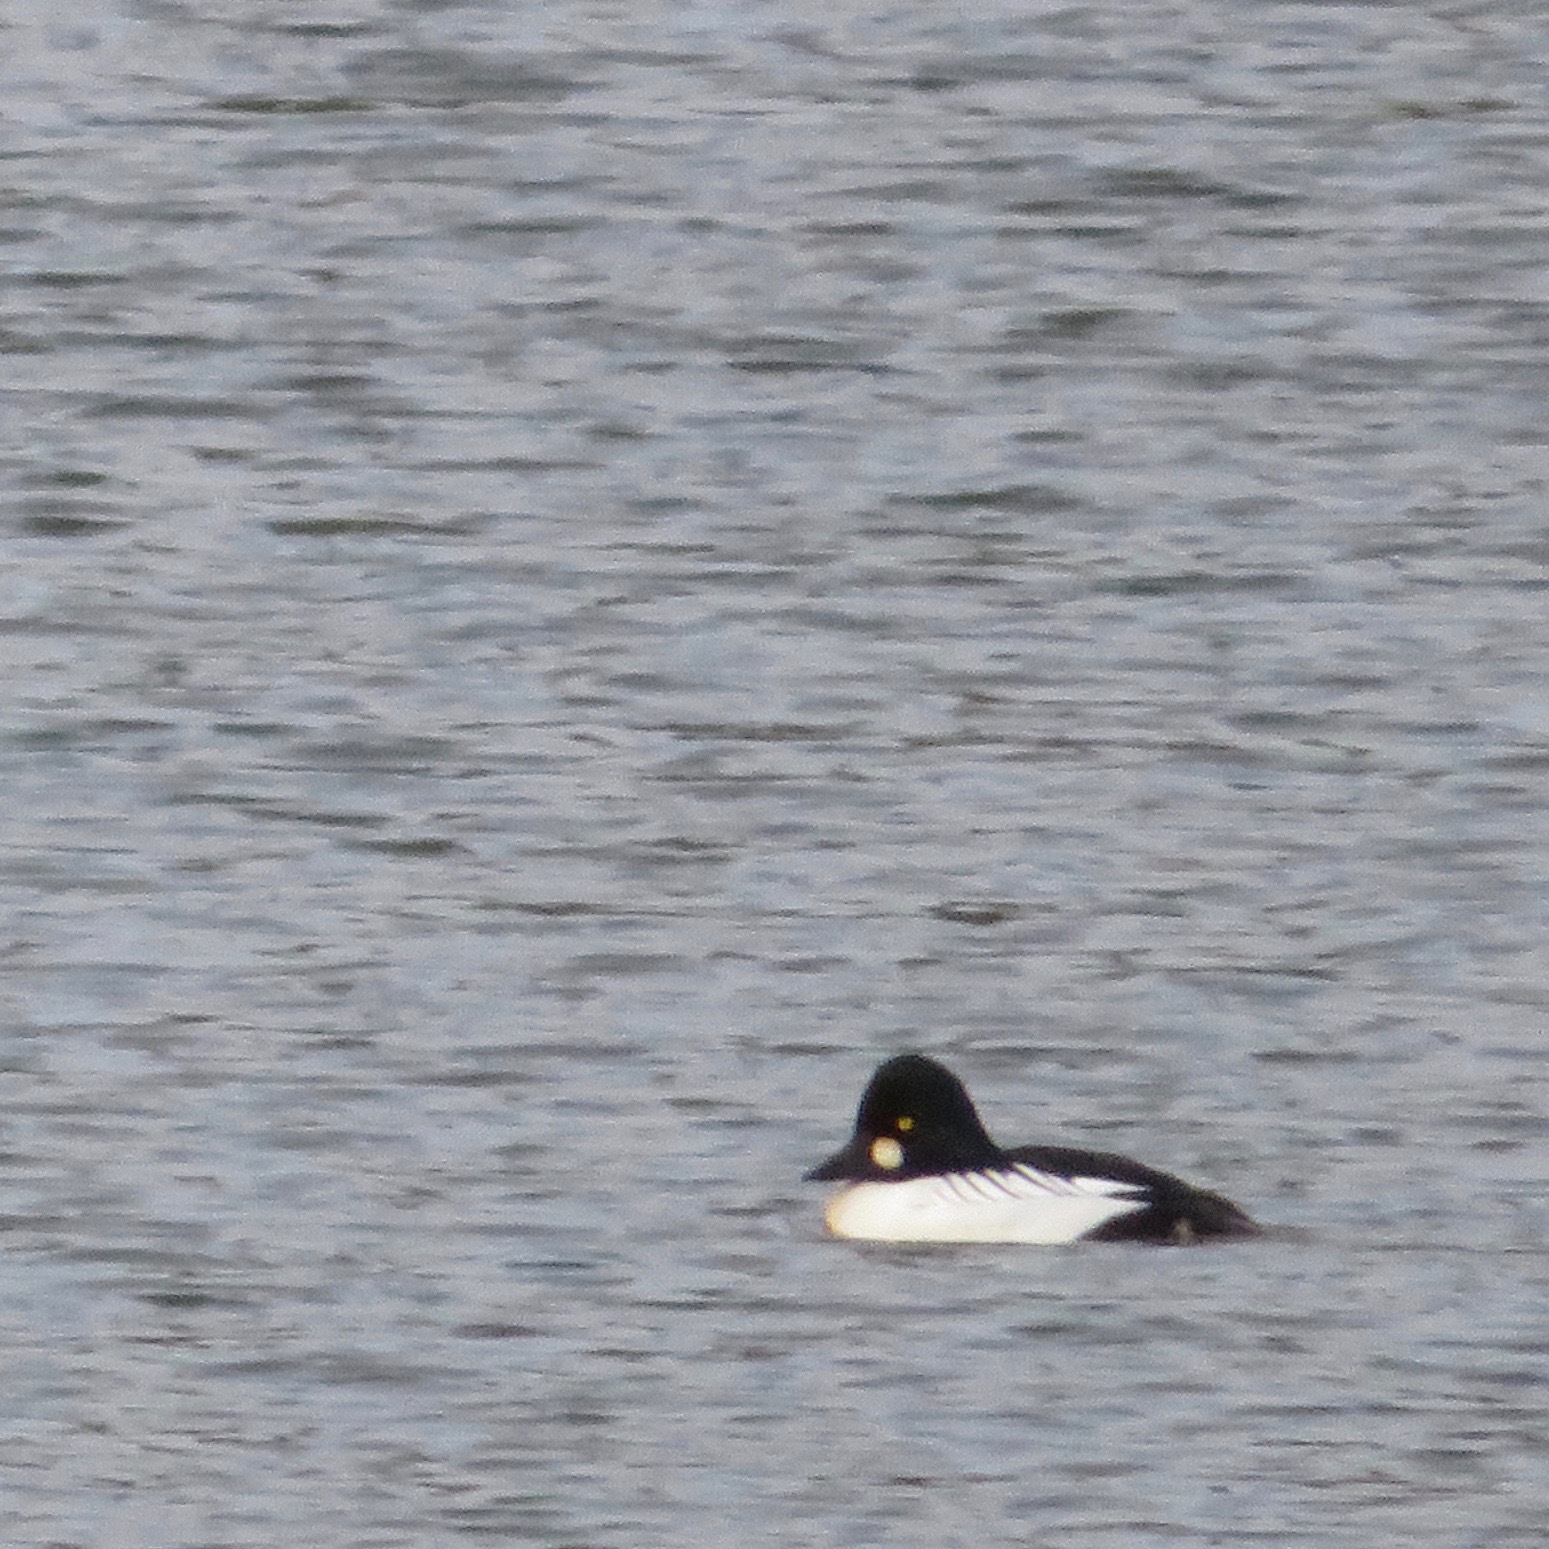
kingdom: Animalia
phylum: Chordata
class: Aves
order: Anseriformes
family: Anatidae
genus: Bucephala
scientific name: Bucephala clangula
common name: Common goldeneye
